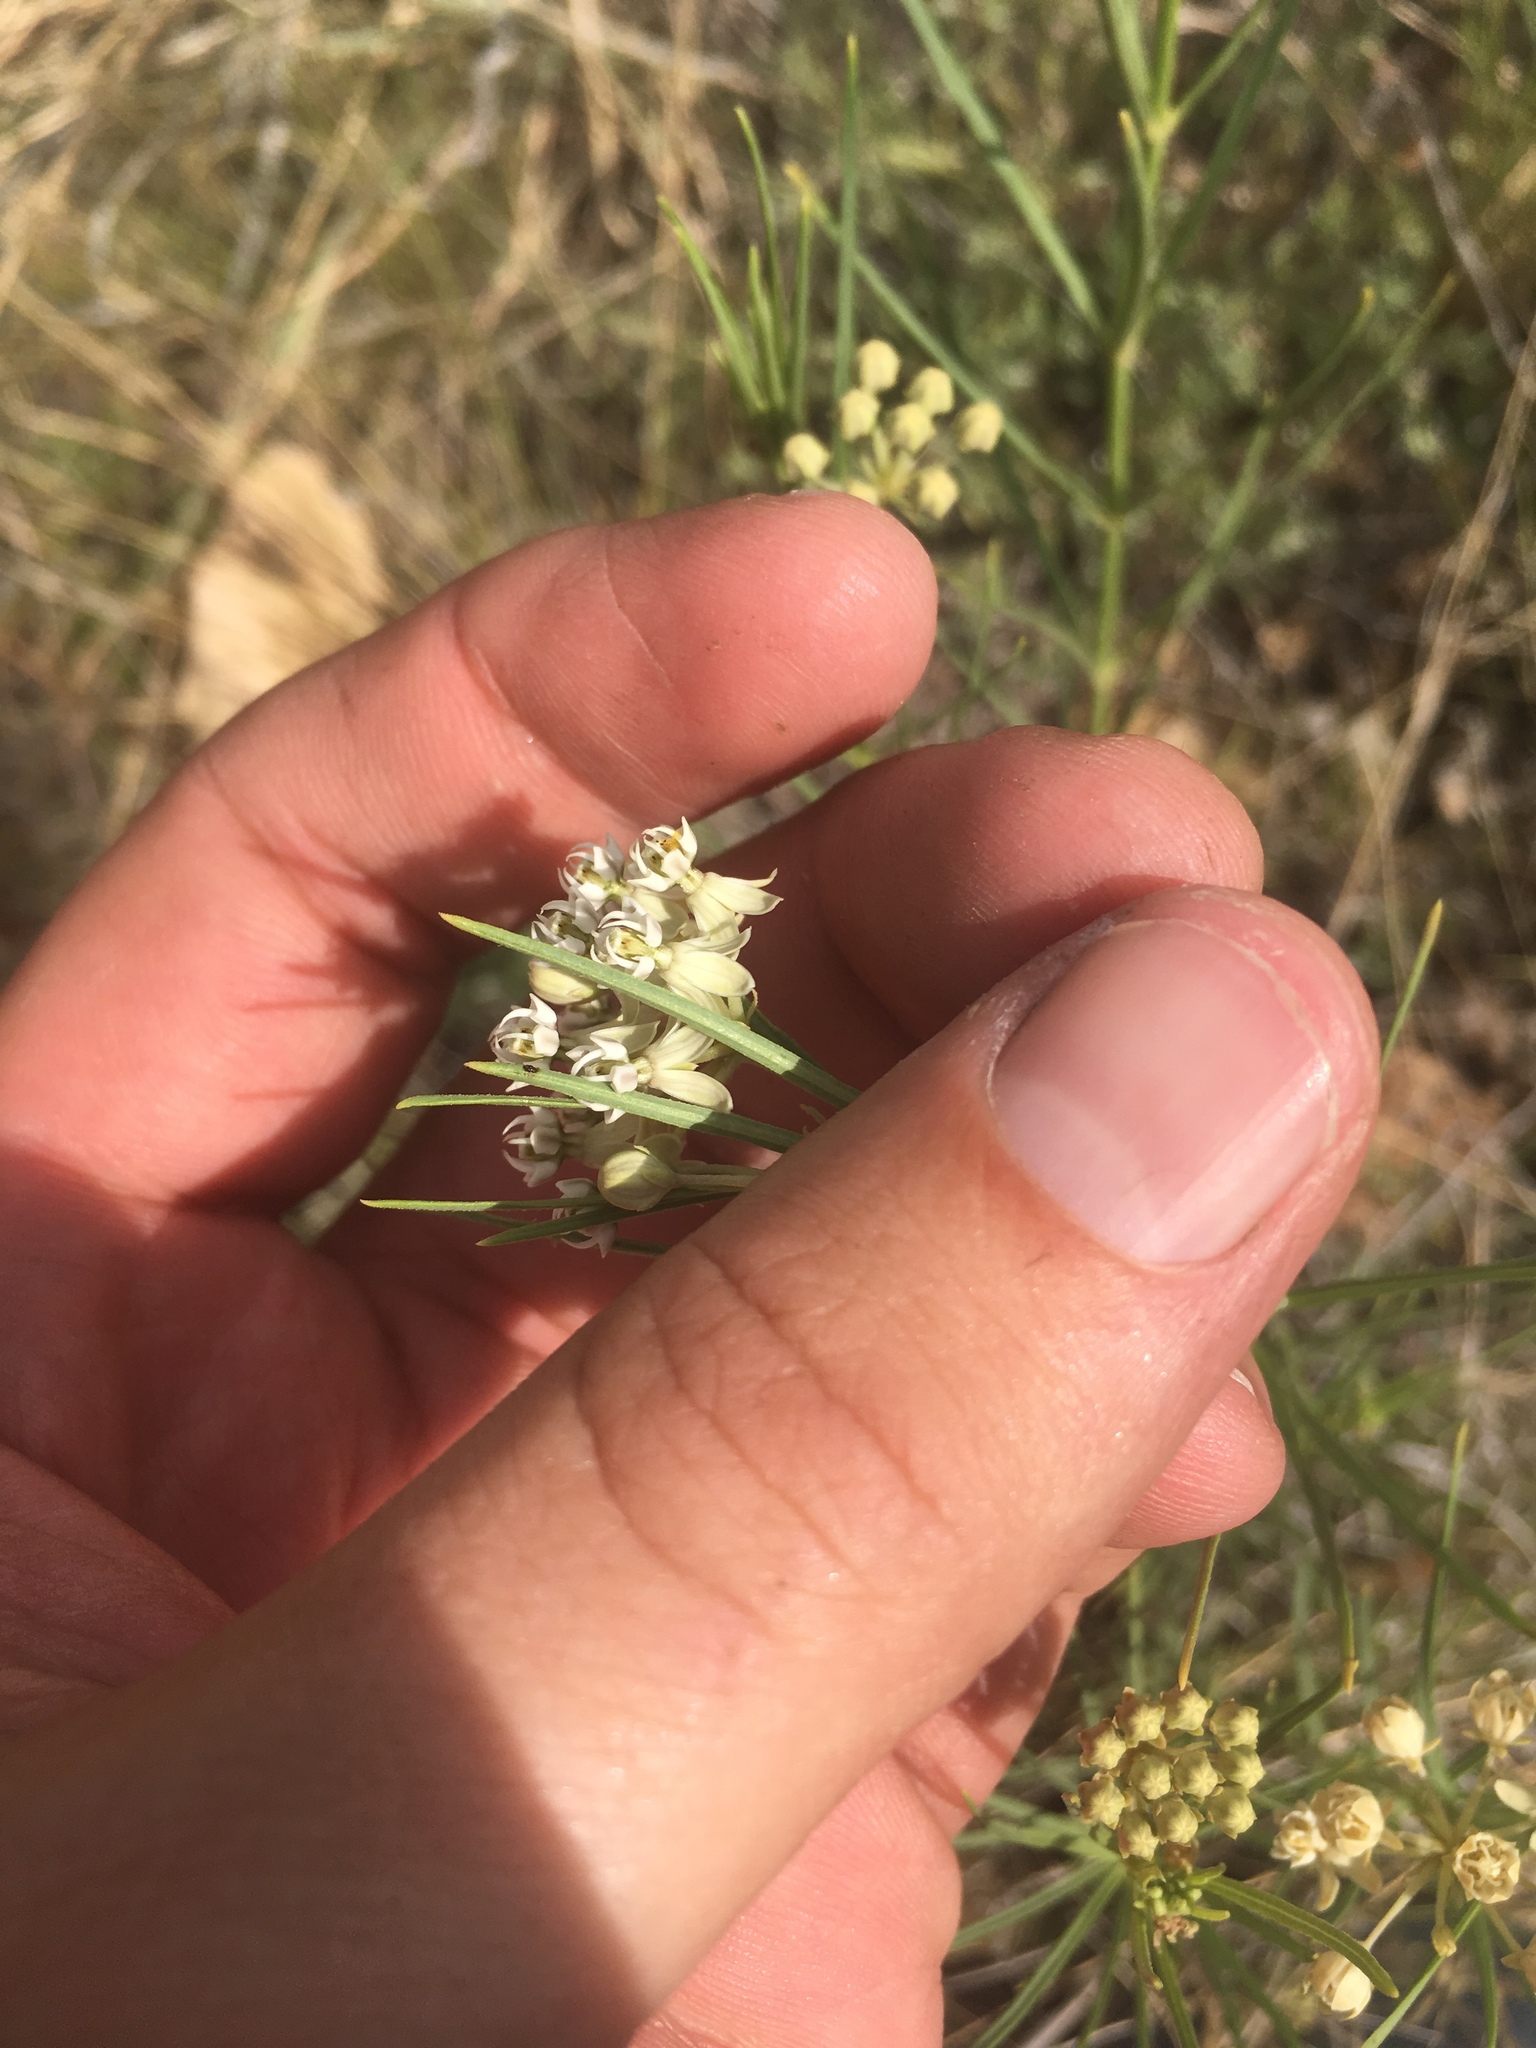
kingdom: Plantae
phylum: Tracheophyta
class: Magnoliopsida
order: Gentianales
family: Apocynaceae
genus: Asclepias
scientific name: Asclepias subverticillata
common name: Horsetail milkweed
